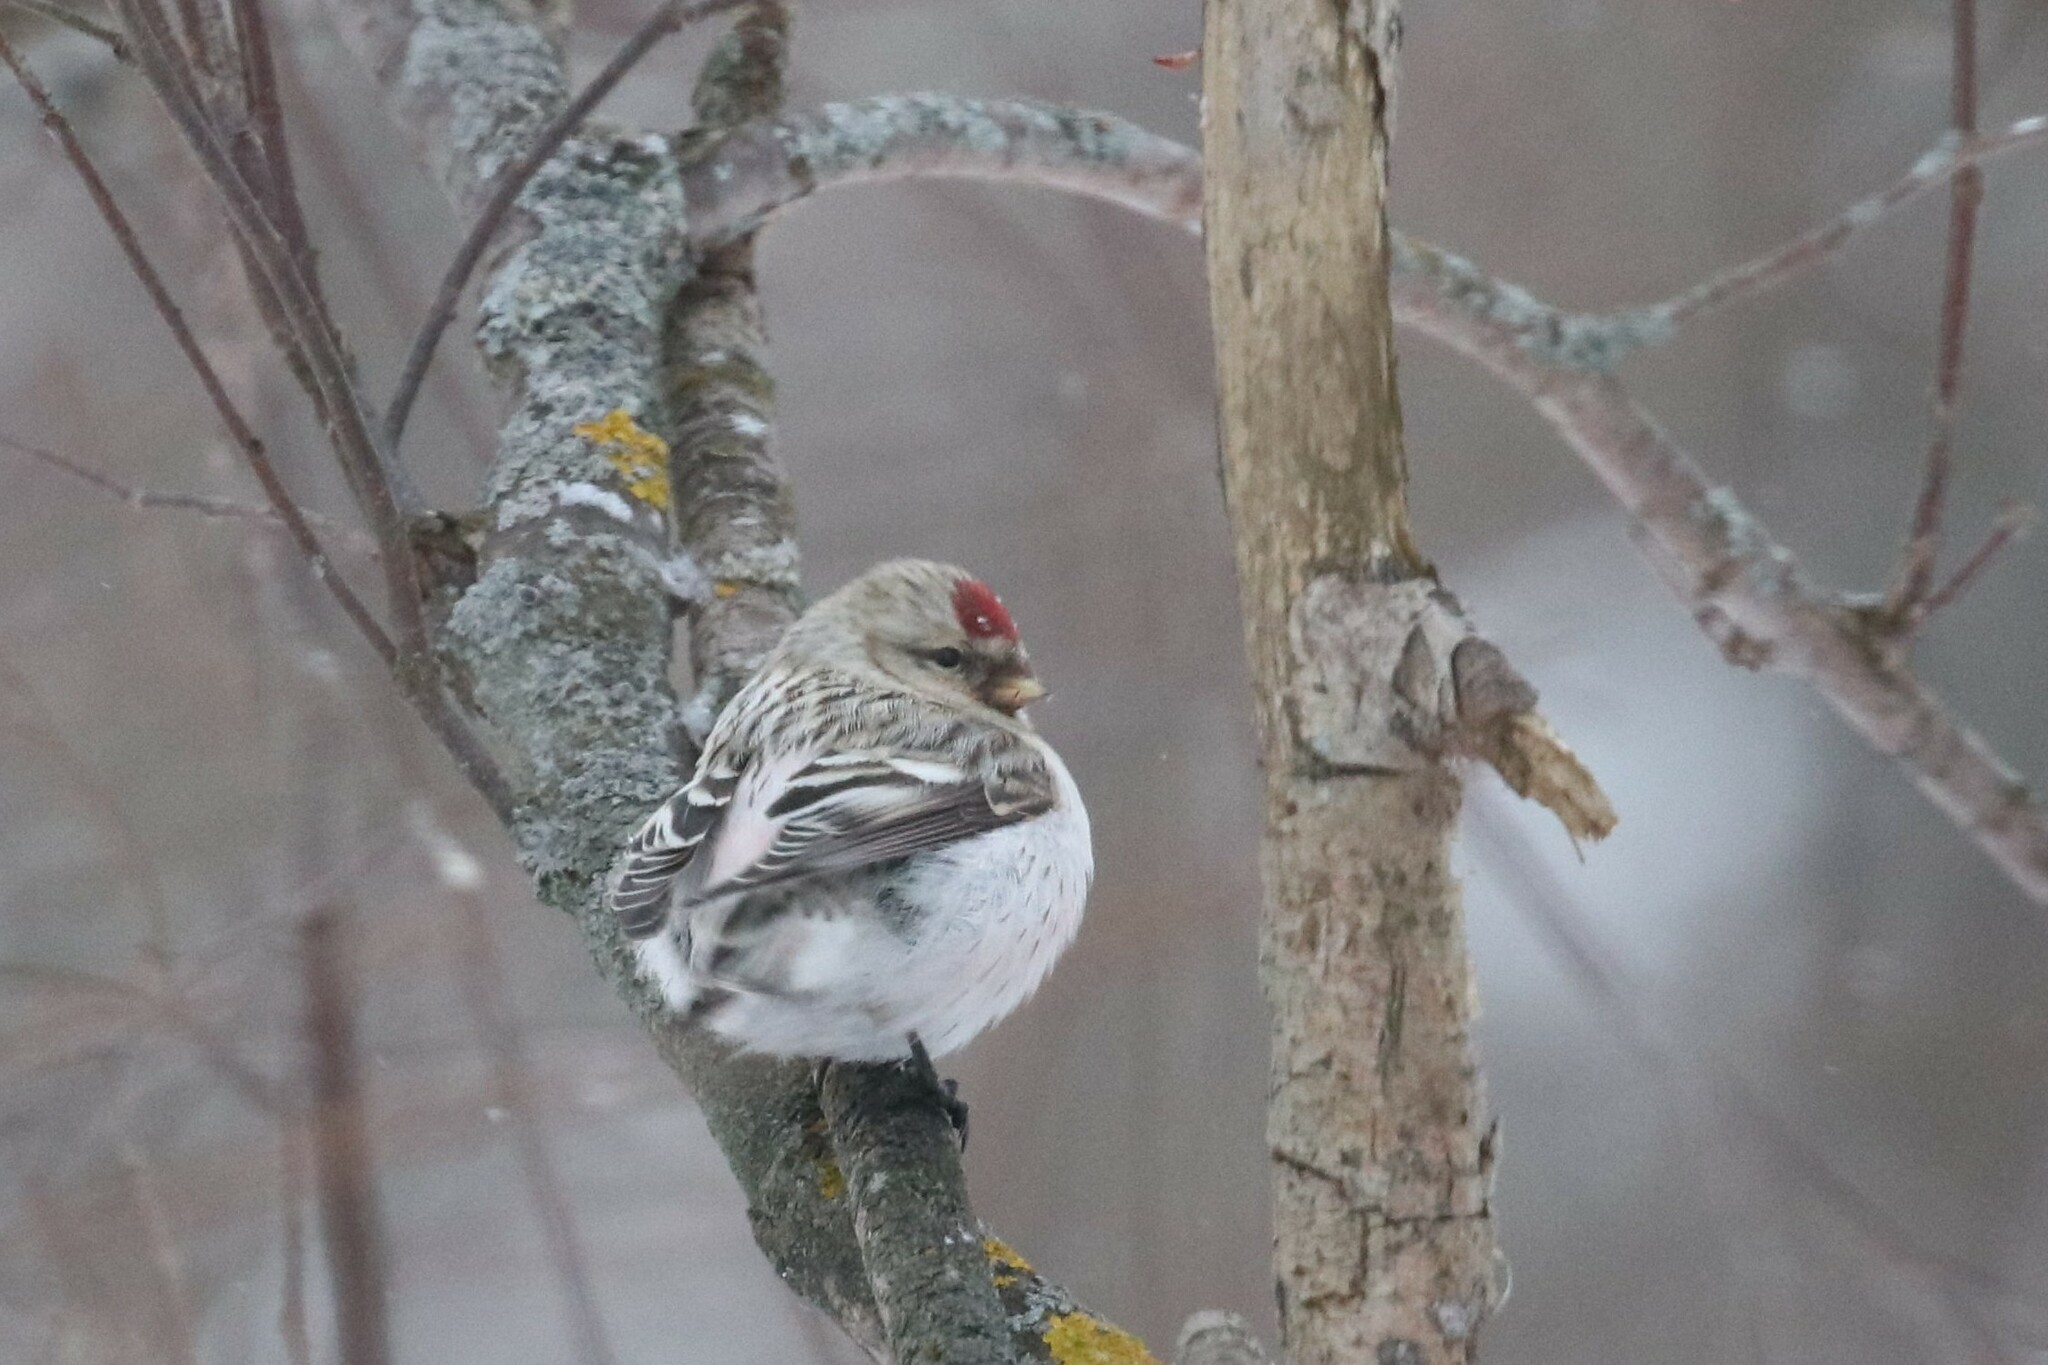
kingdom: Animalia
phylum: Chordata
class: Aves
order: Passeriformes
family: Fringillidae
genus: Acanthis
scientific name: Acanthis hornemanni
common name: Arctic redpoll
